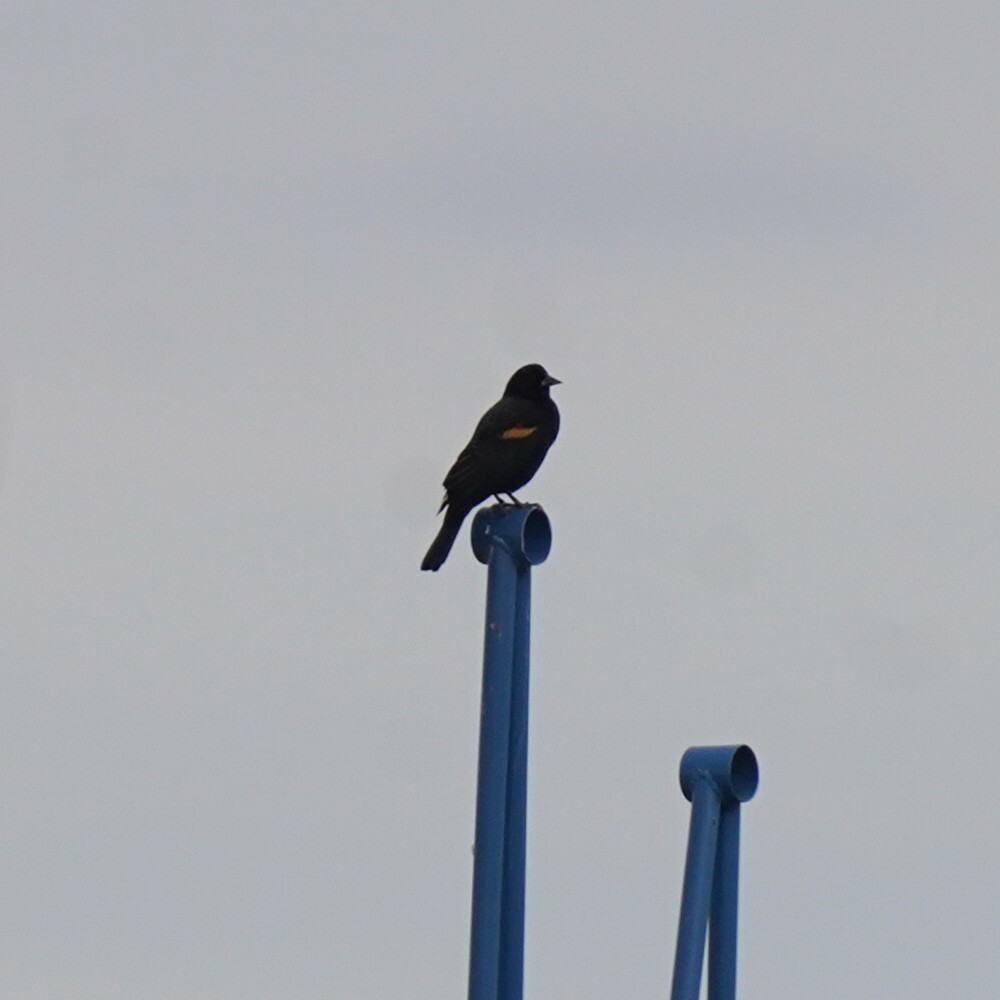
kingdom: Animalia
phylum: Chordata
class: Aves
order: Passeriformes
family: Icteridae
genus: Agelaius
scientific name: Agelaius phoeniceus
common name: Red-winged blackbird
